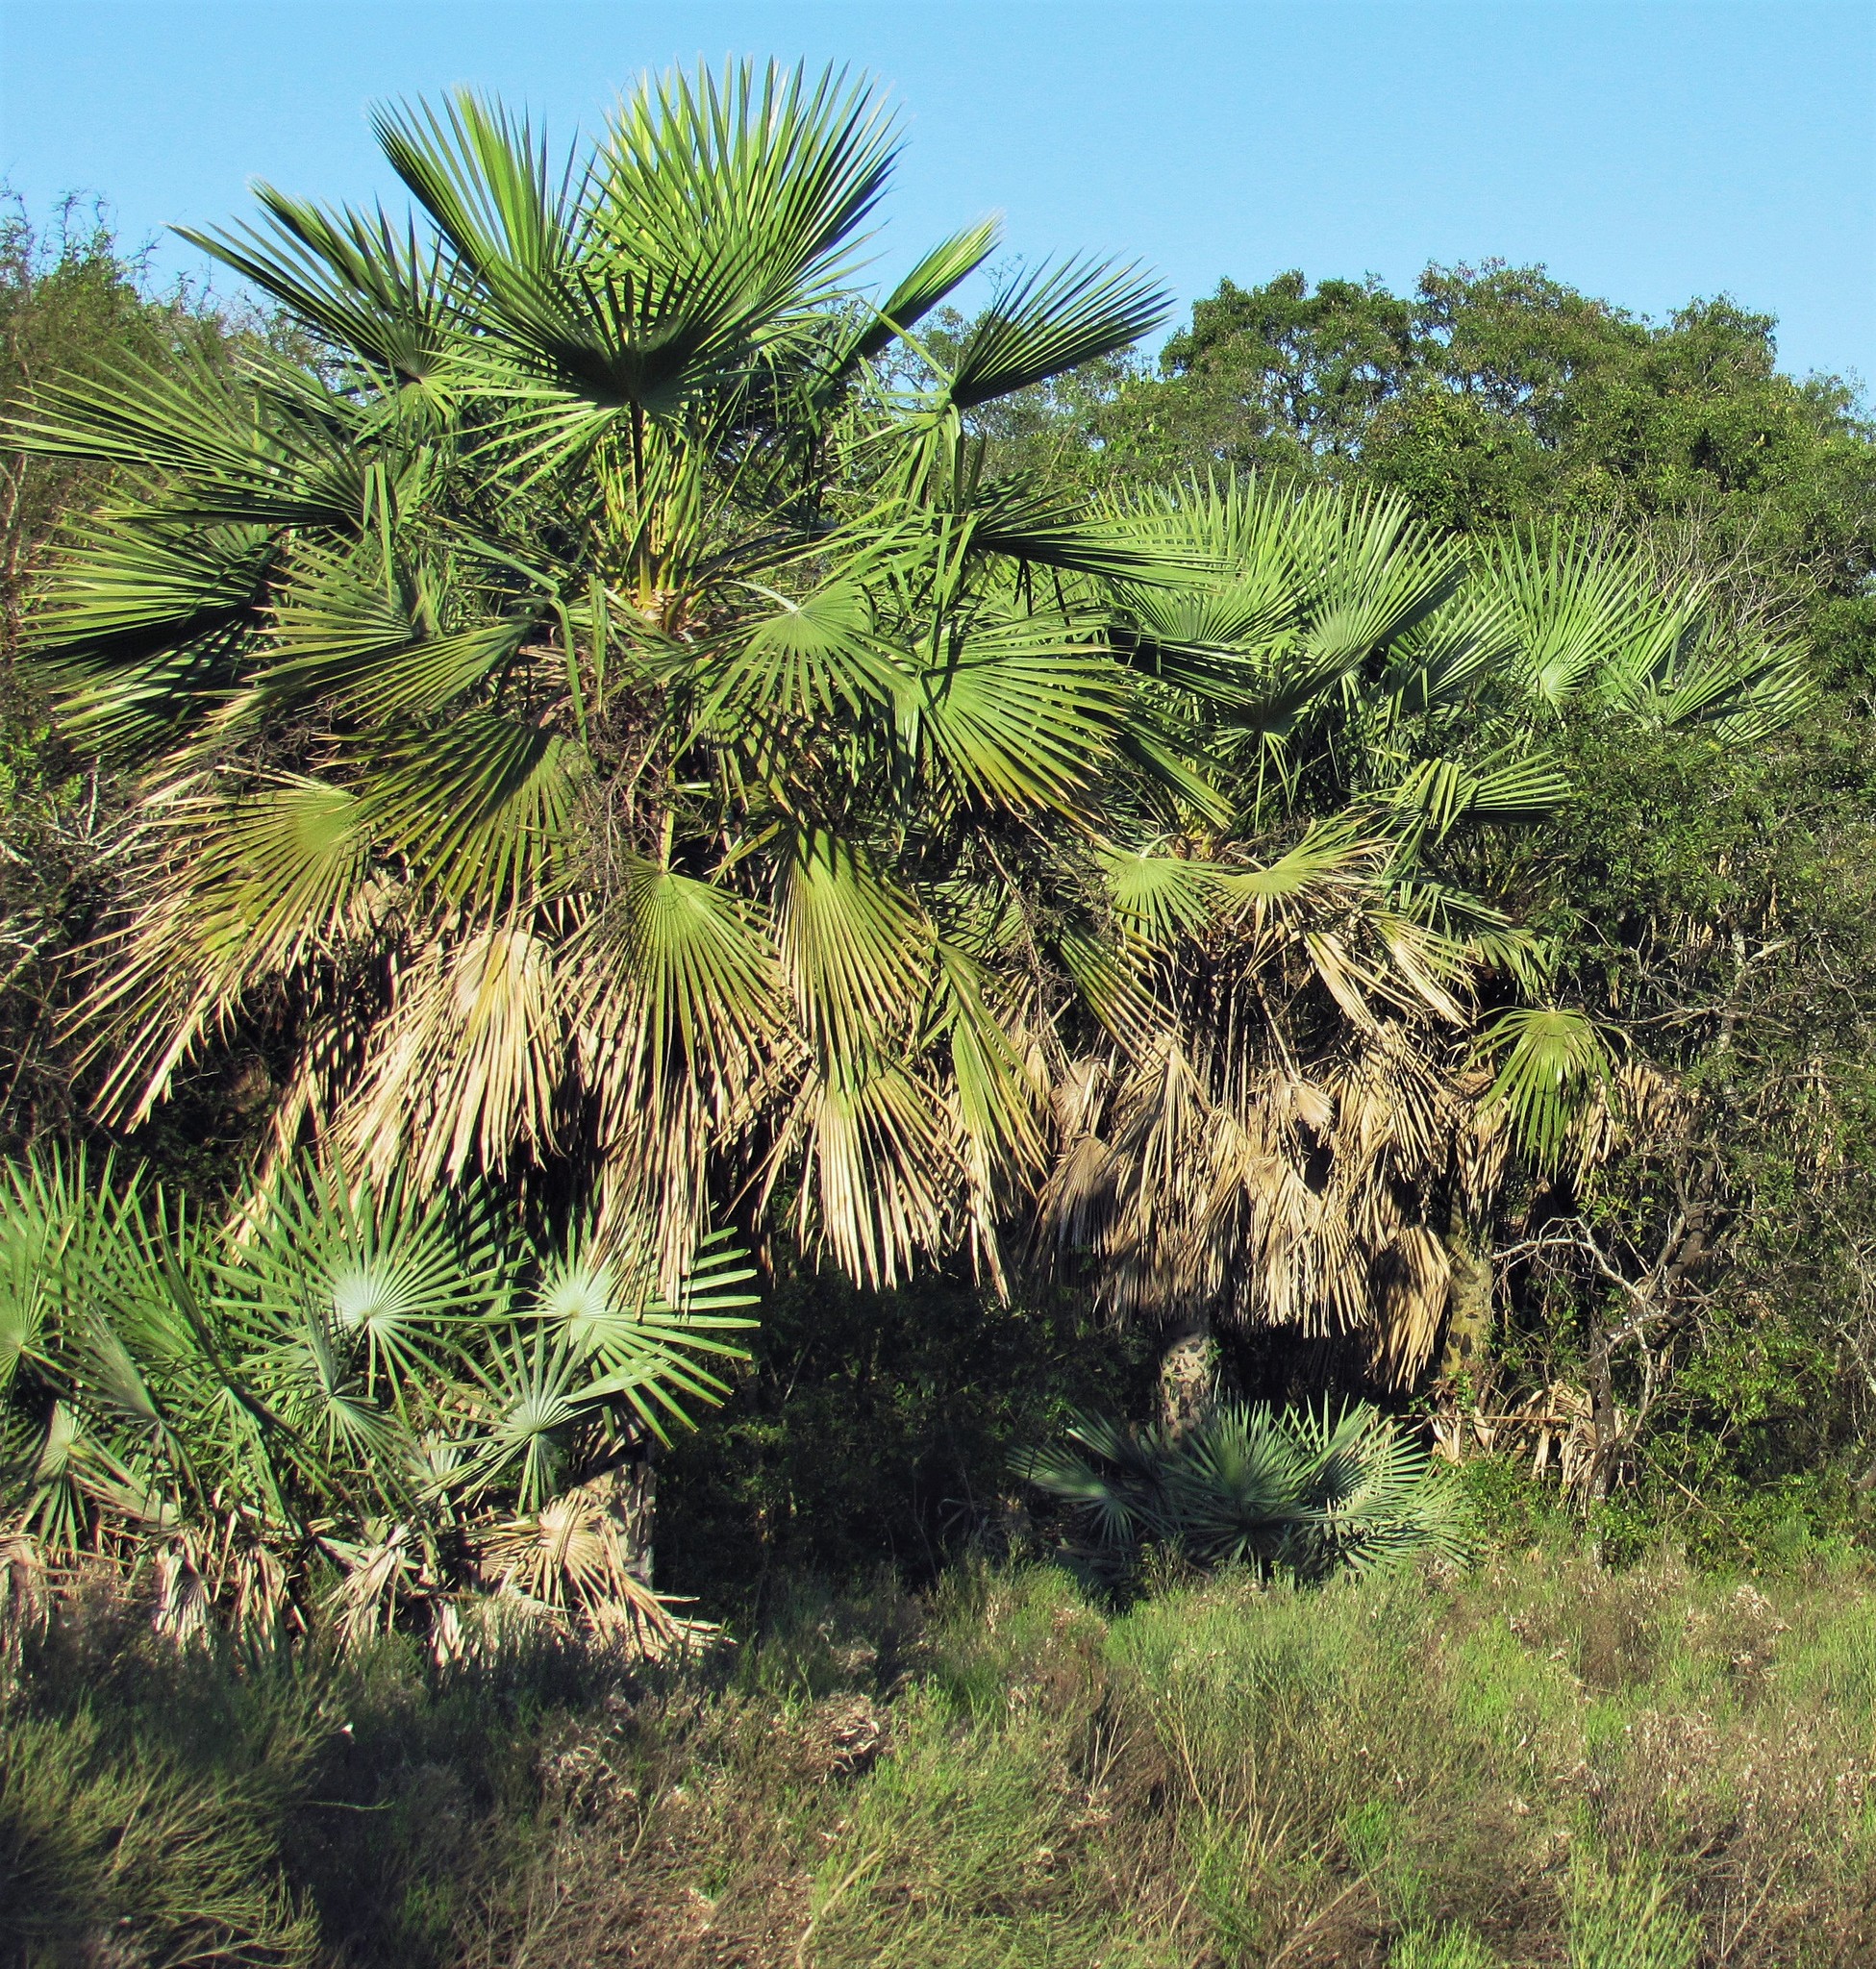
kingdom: Plantae
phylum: Tracheophyta
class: Liliopsida
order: Arecales
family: Arecaceae
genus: Copernicia
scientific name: Copernicia alba
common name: Caranday palm
